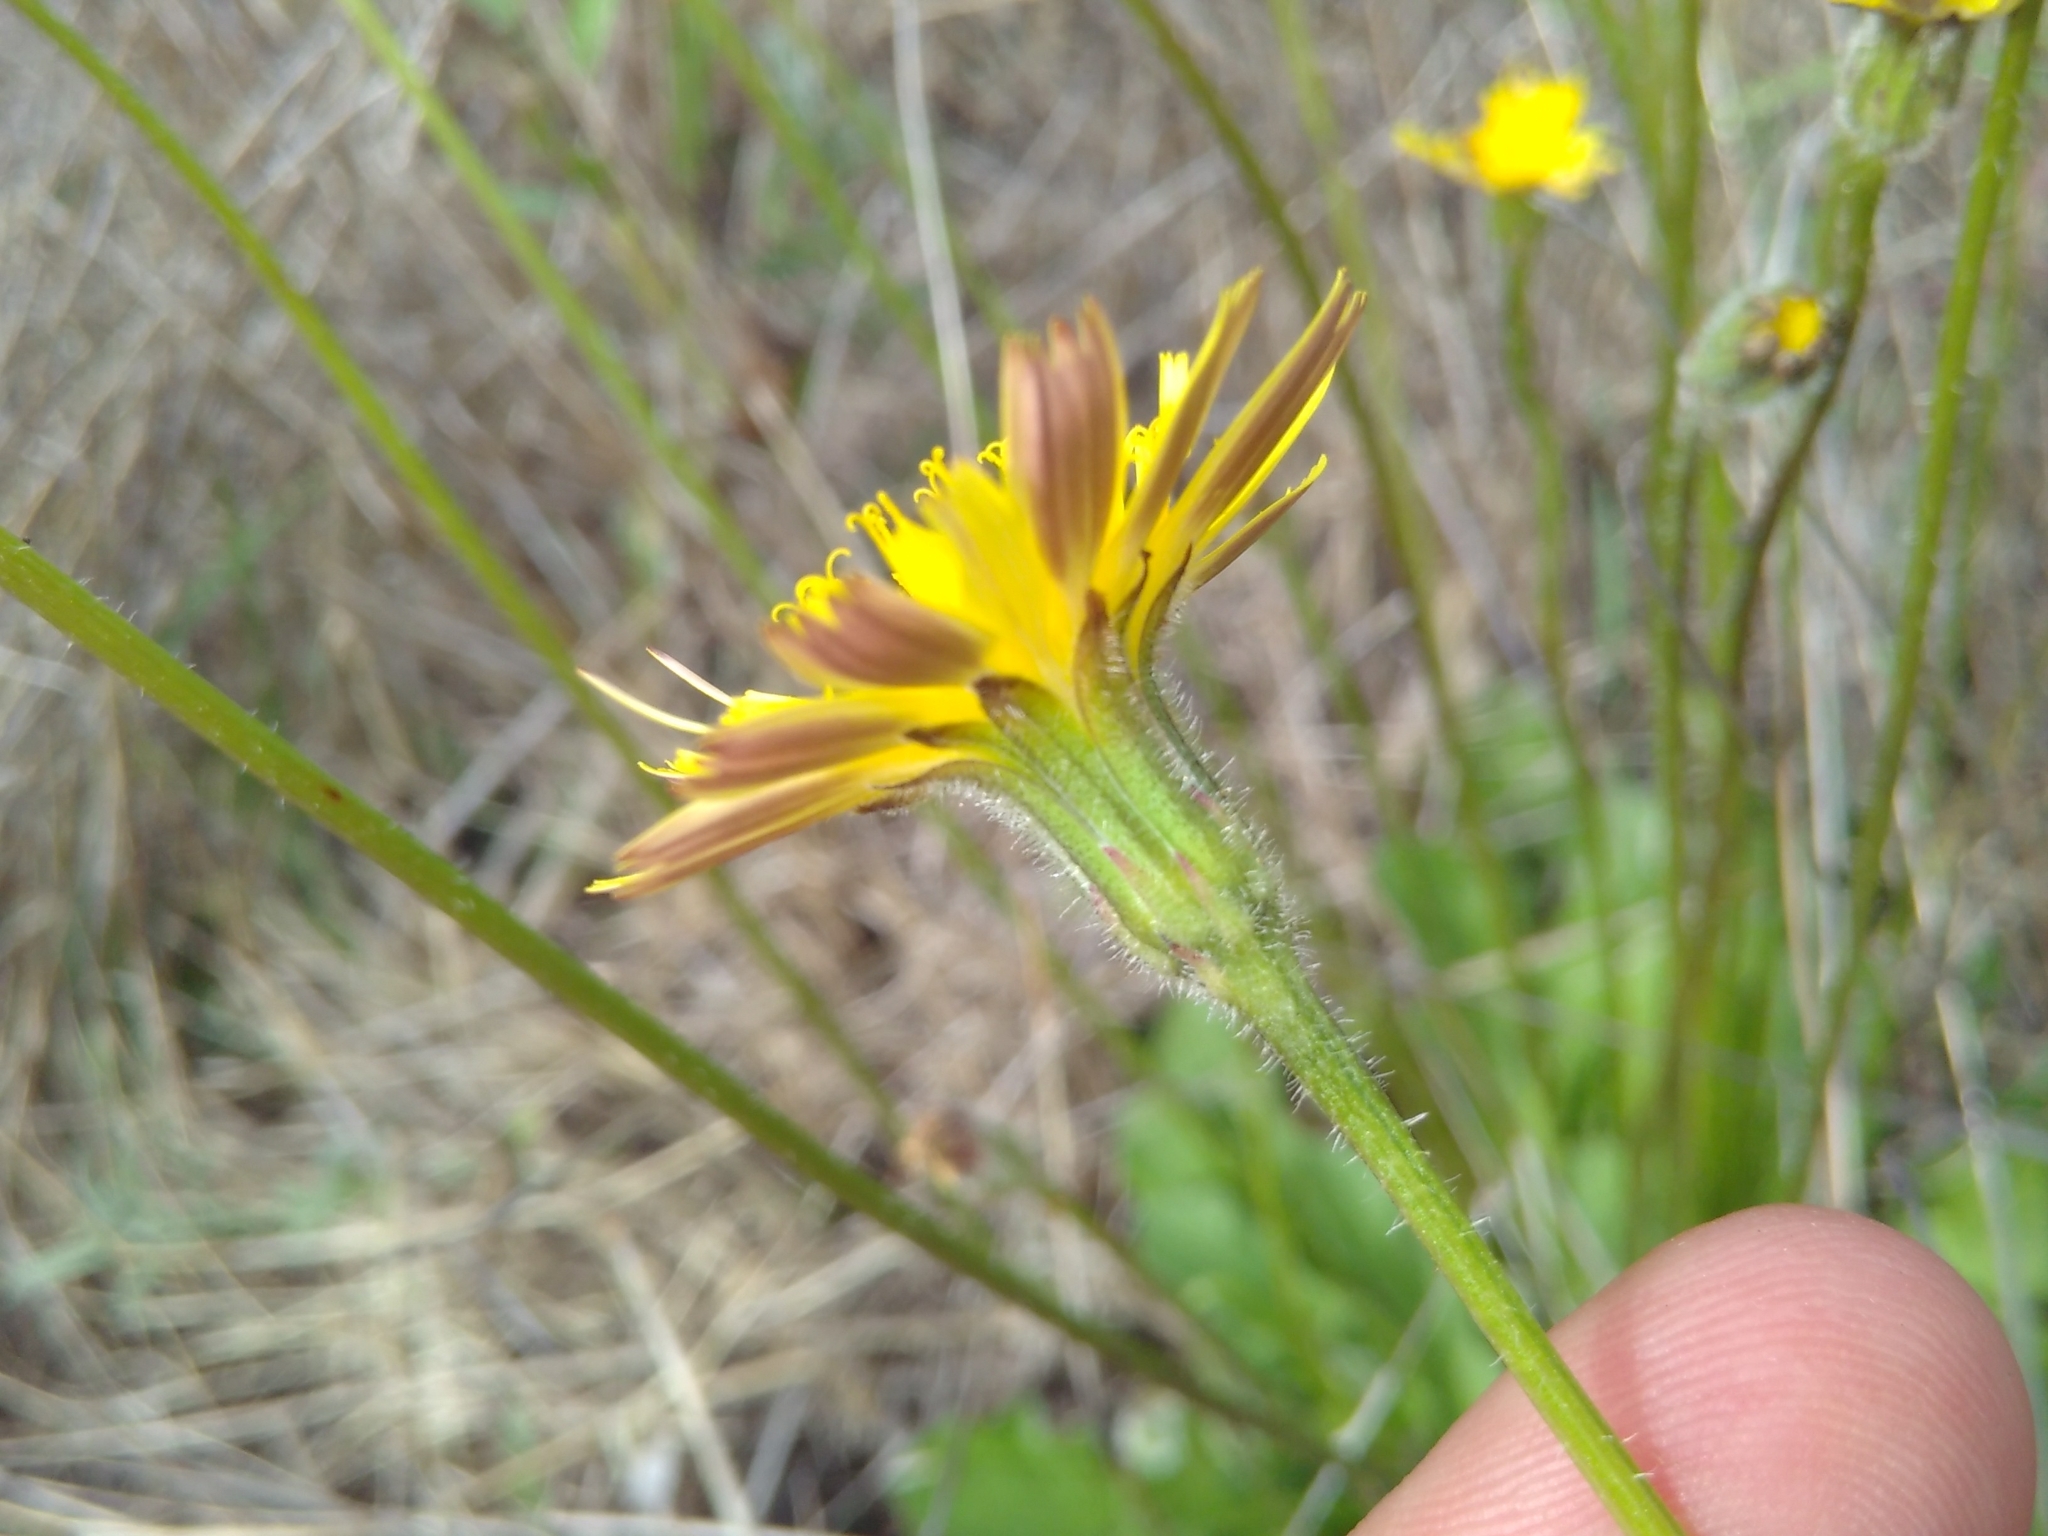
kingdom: Plantae
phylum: Tracheophyta
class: Magnoliopsida
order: Asterales
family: Asteraceae
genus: Hypochaeris
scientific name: Hypochaeris radicata
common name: Flatweed
